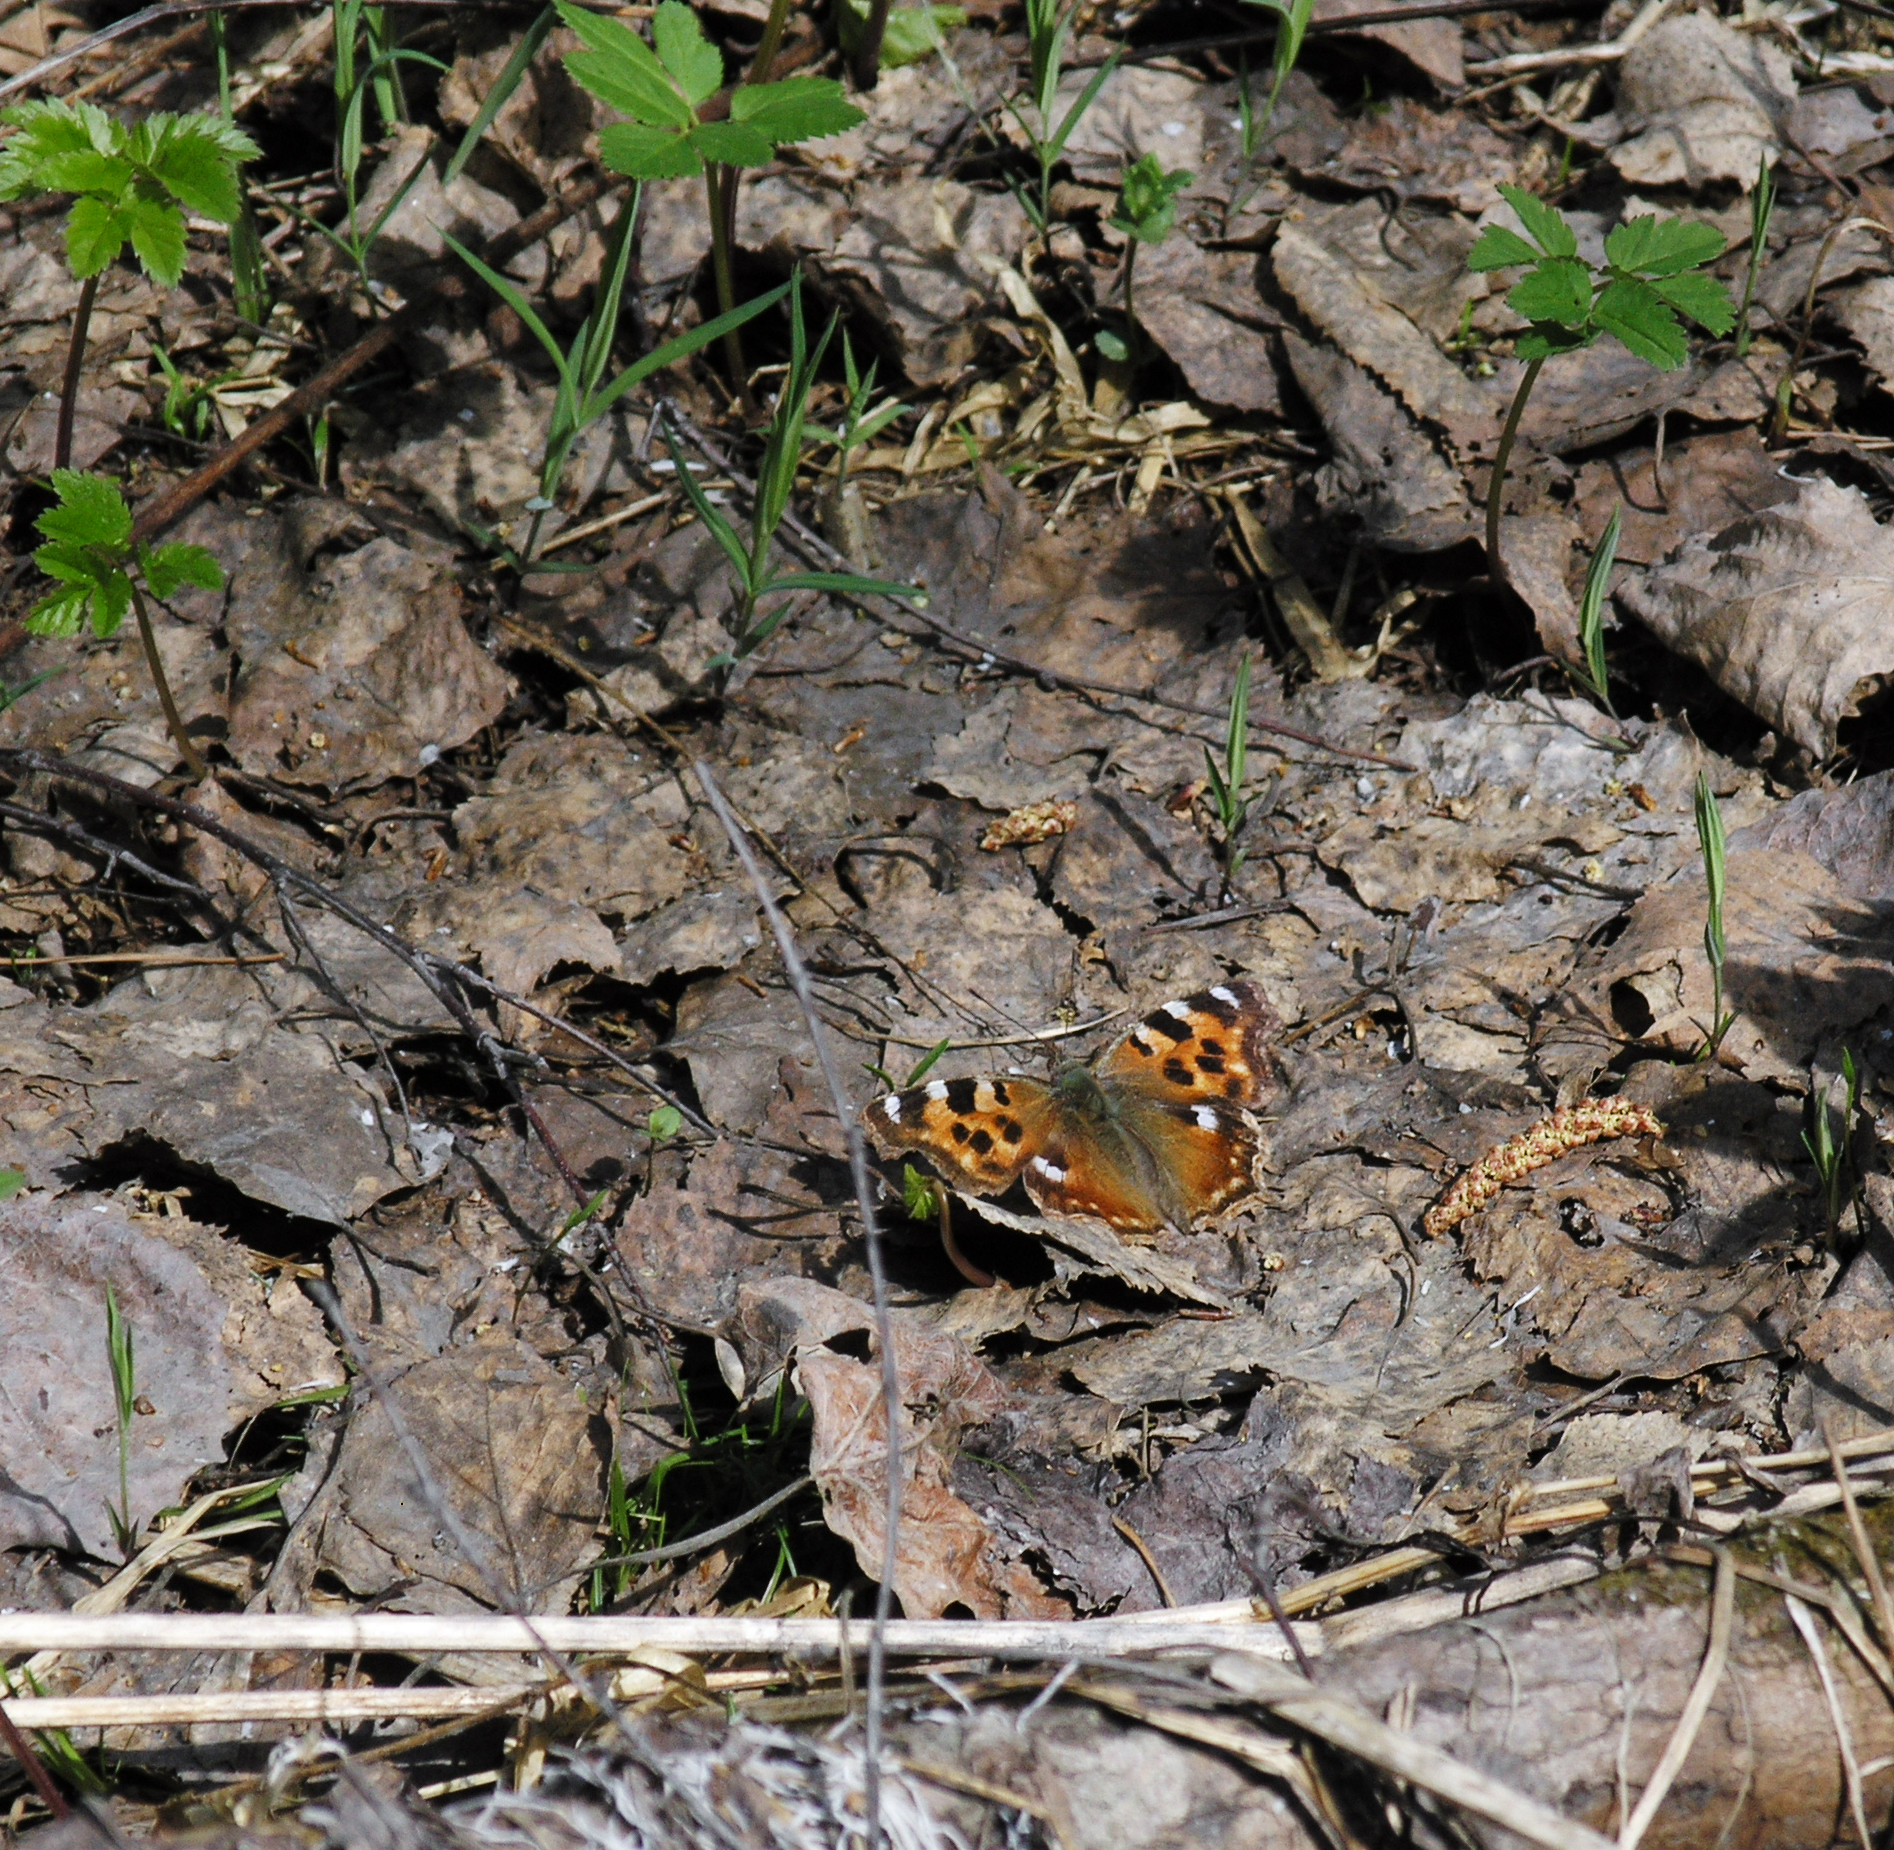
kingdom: Animalia
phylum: Arthropoda
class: Insecta
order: Lepidoptera
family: Nymphalidae
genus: Polygonia
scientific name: Polygonia vaualbum
